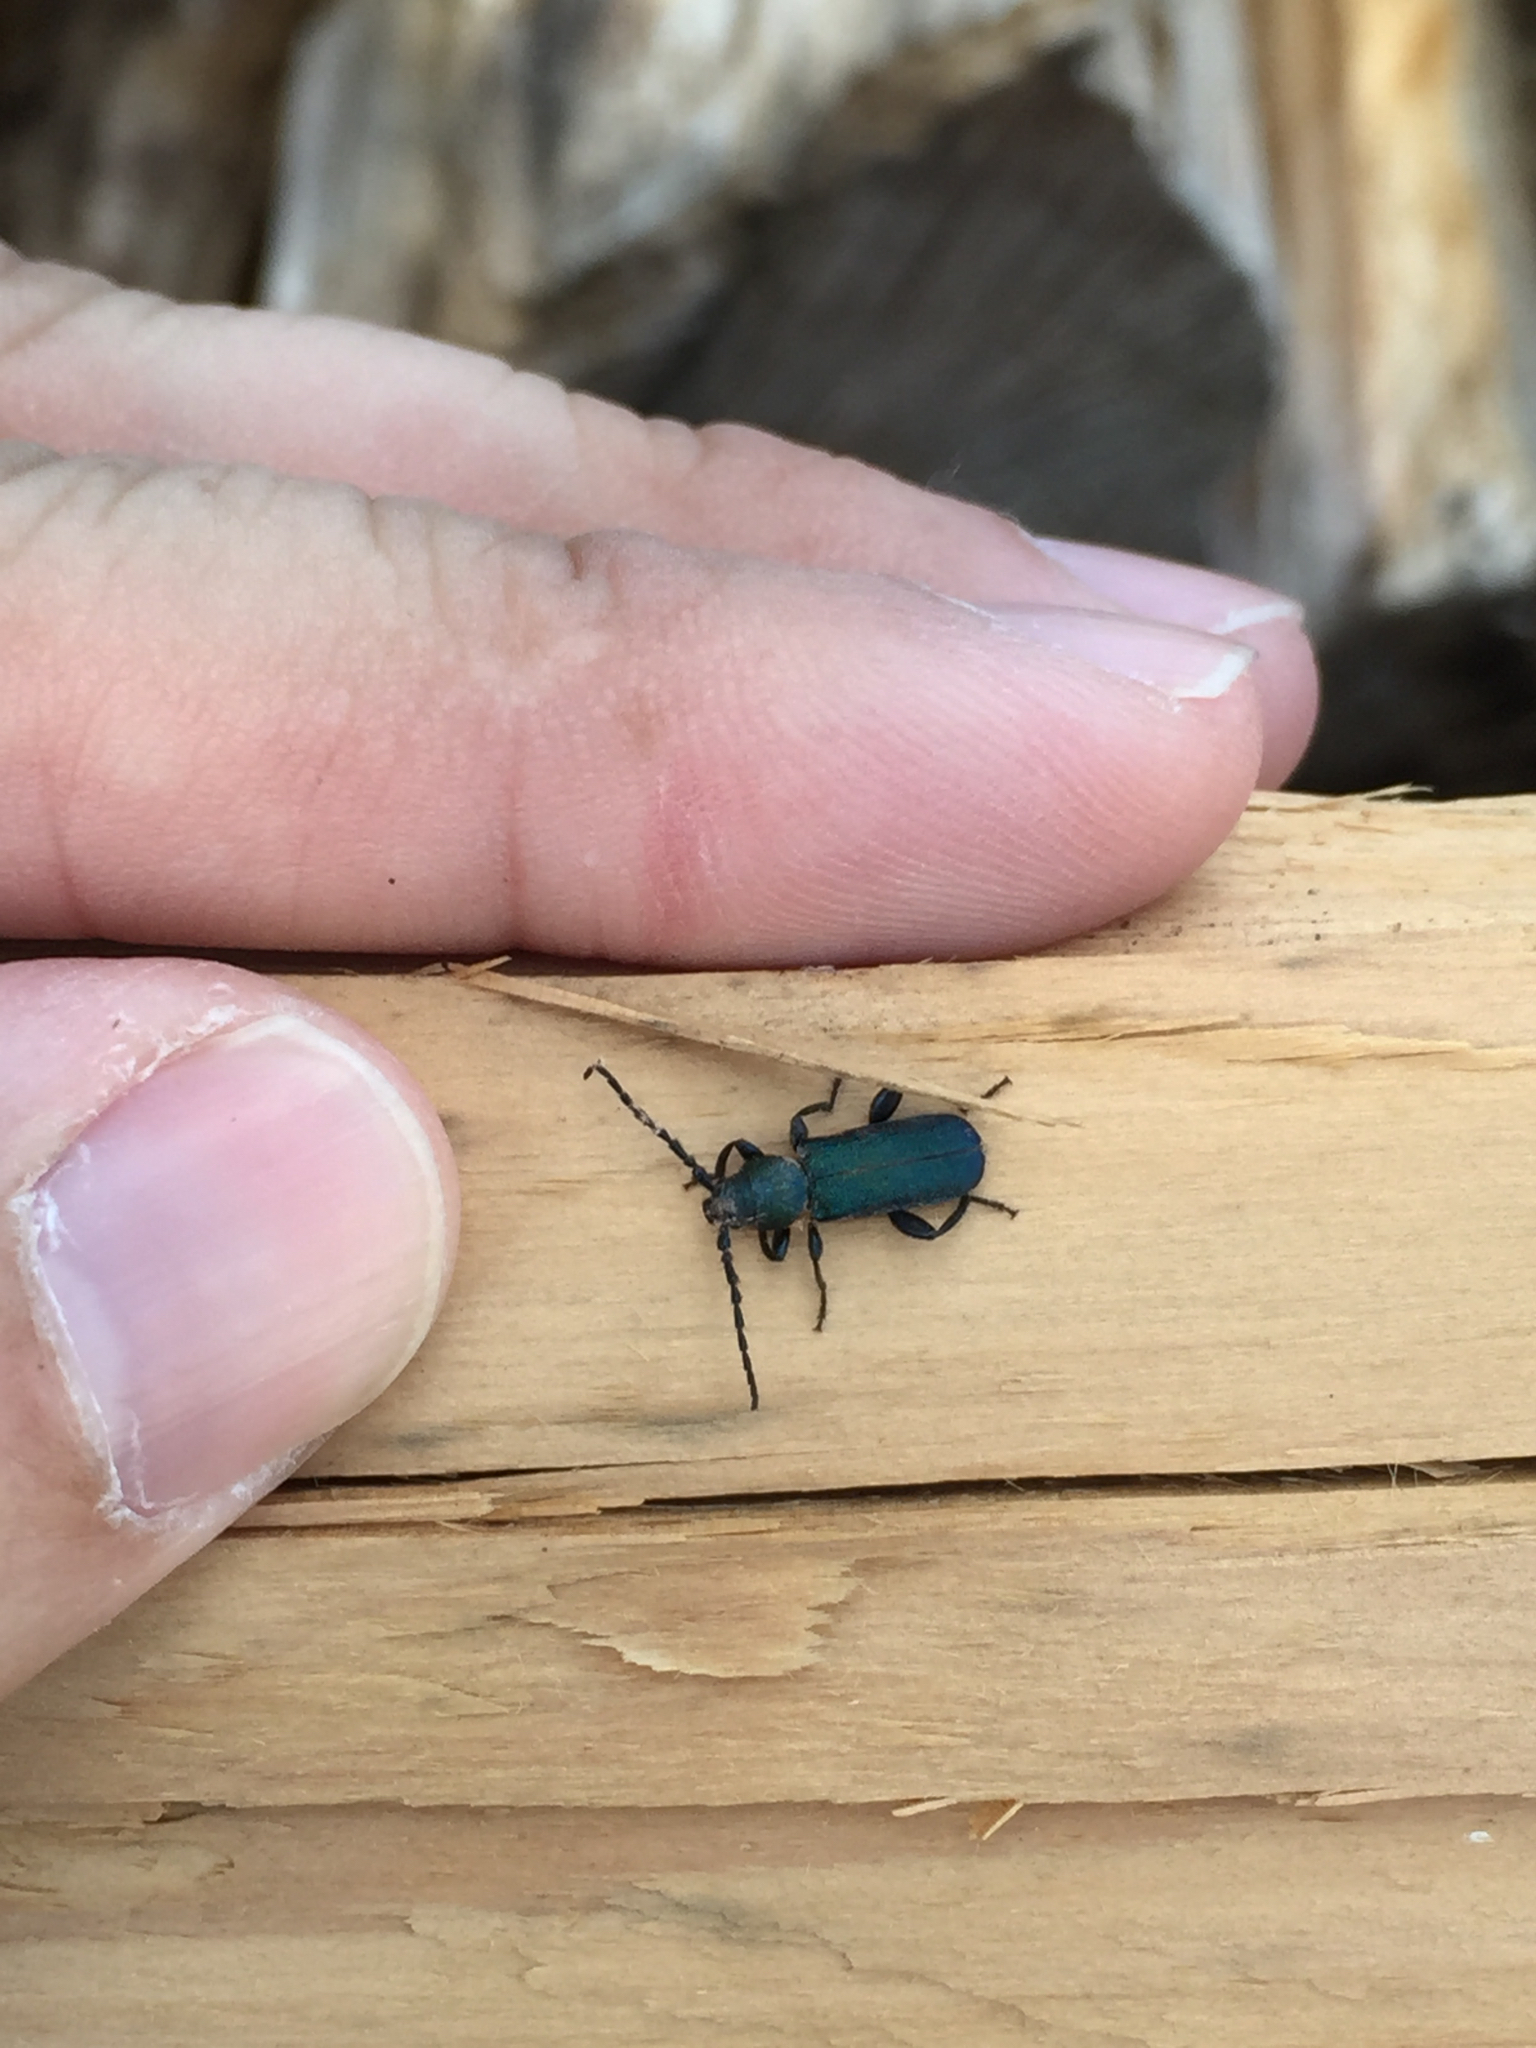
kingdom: Animalia
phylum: Arthropoda
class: Insecta
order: Coleoptera
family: Cerambycidae
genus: Callidium
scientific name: Callidium texanum
